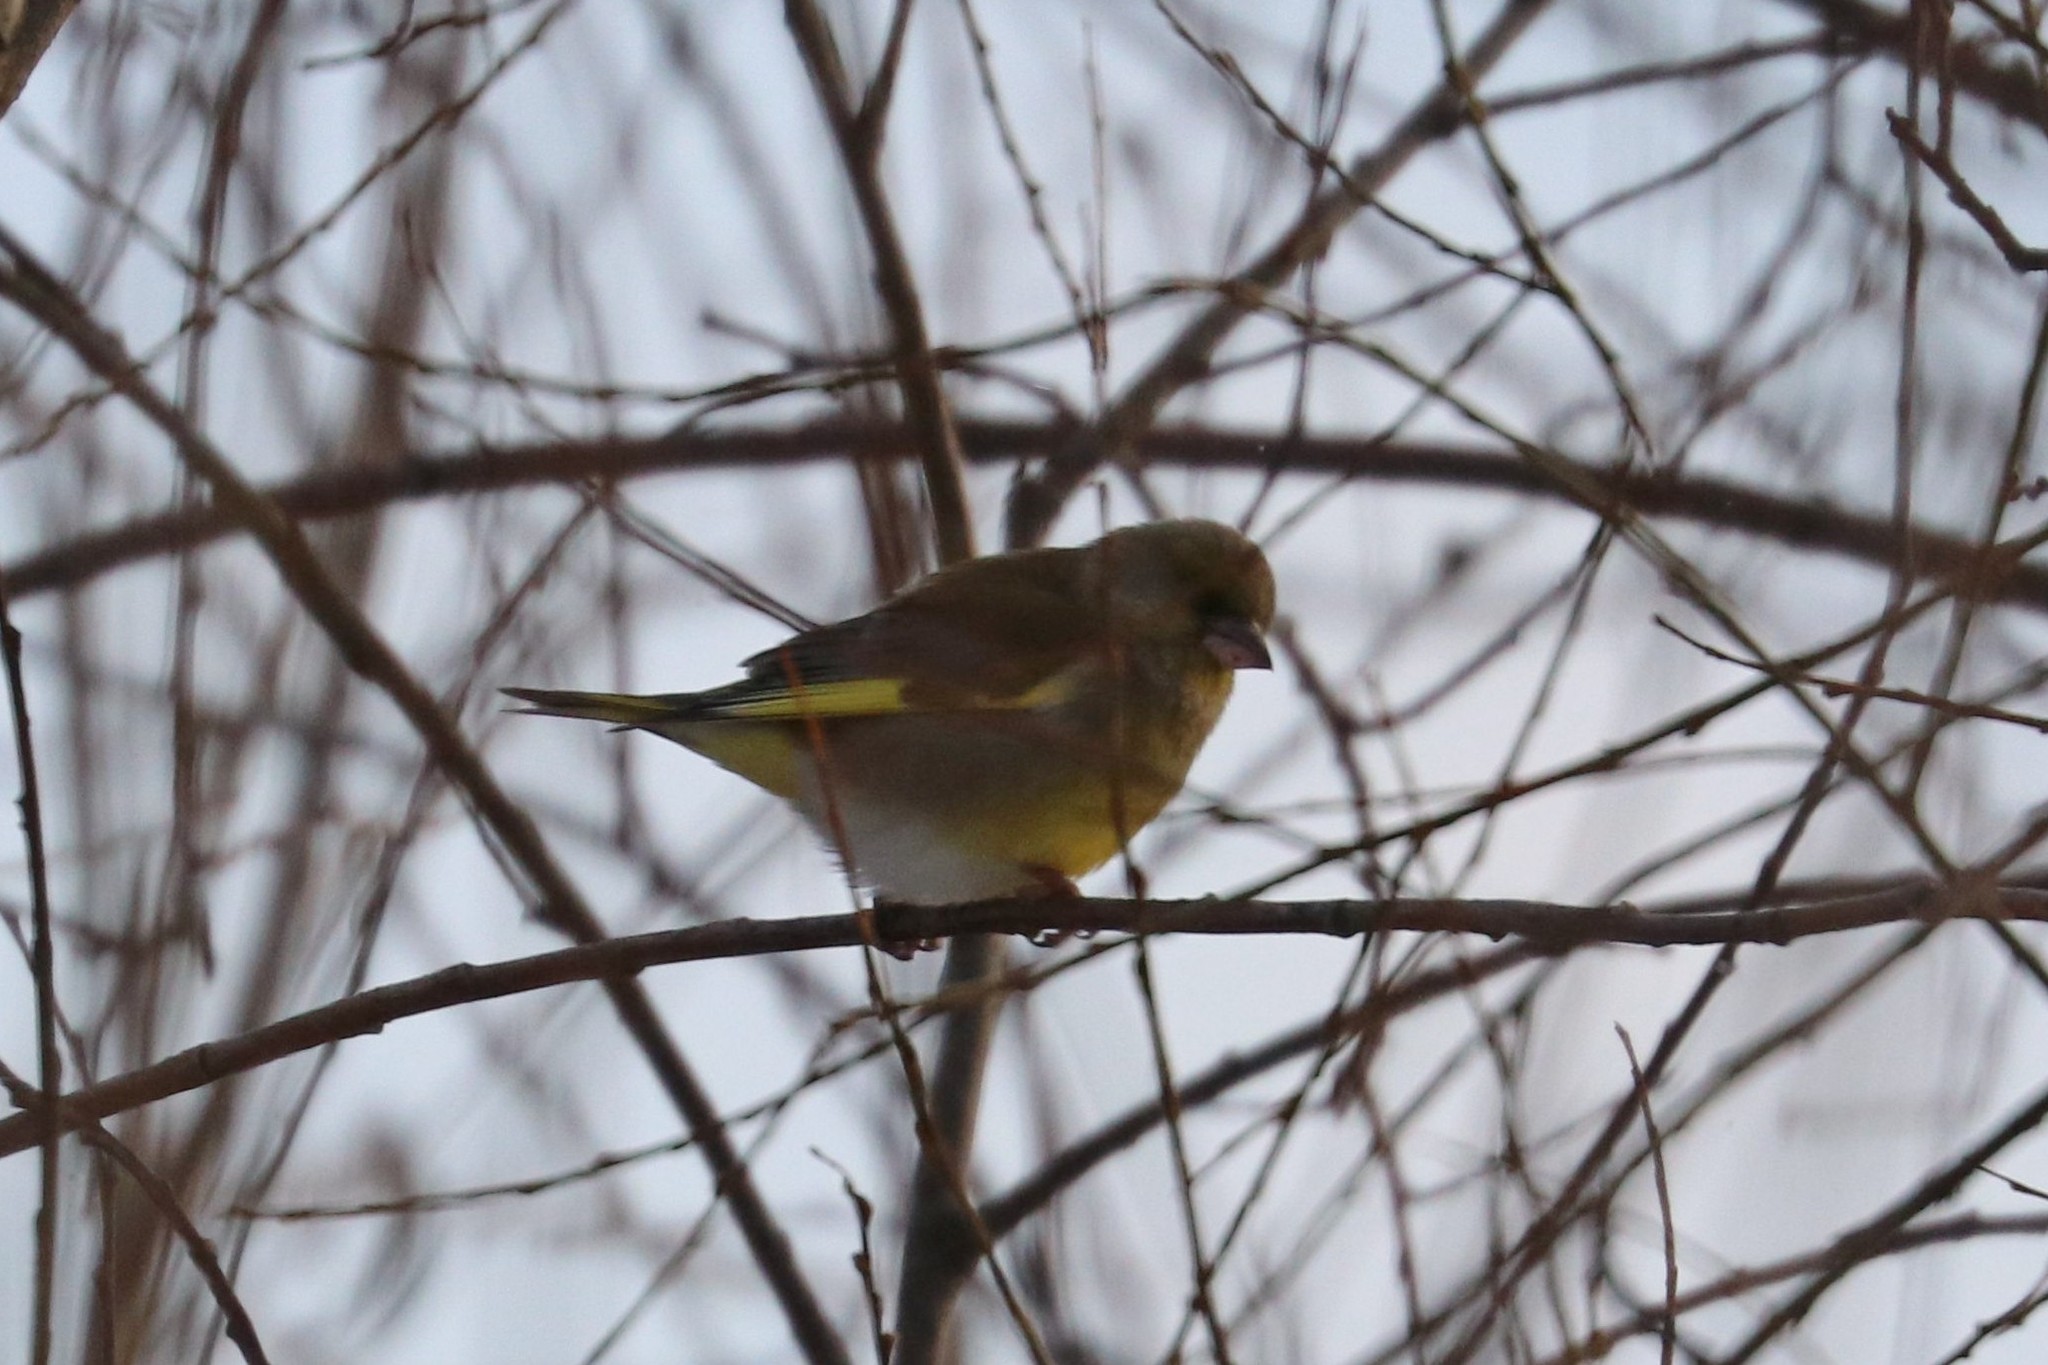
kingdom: Plantae
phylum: Tracheophyta
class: Liliopsida
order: Poales
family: Poaceae
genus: Chloris
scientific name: Chloris chloris
